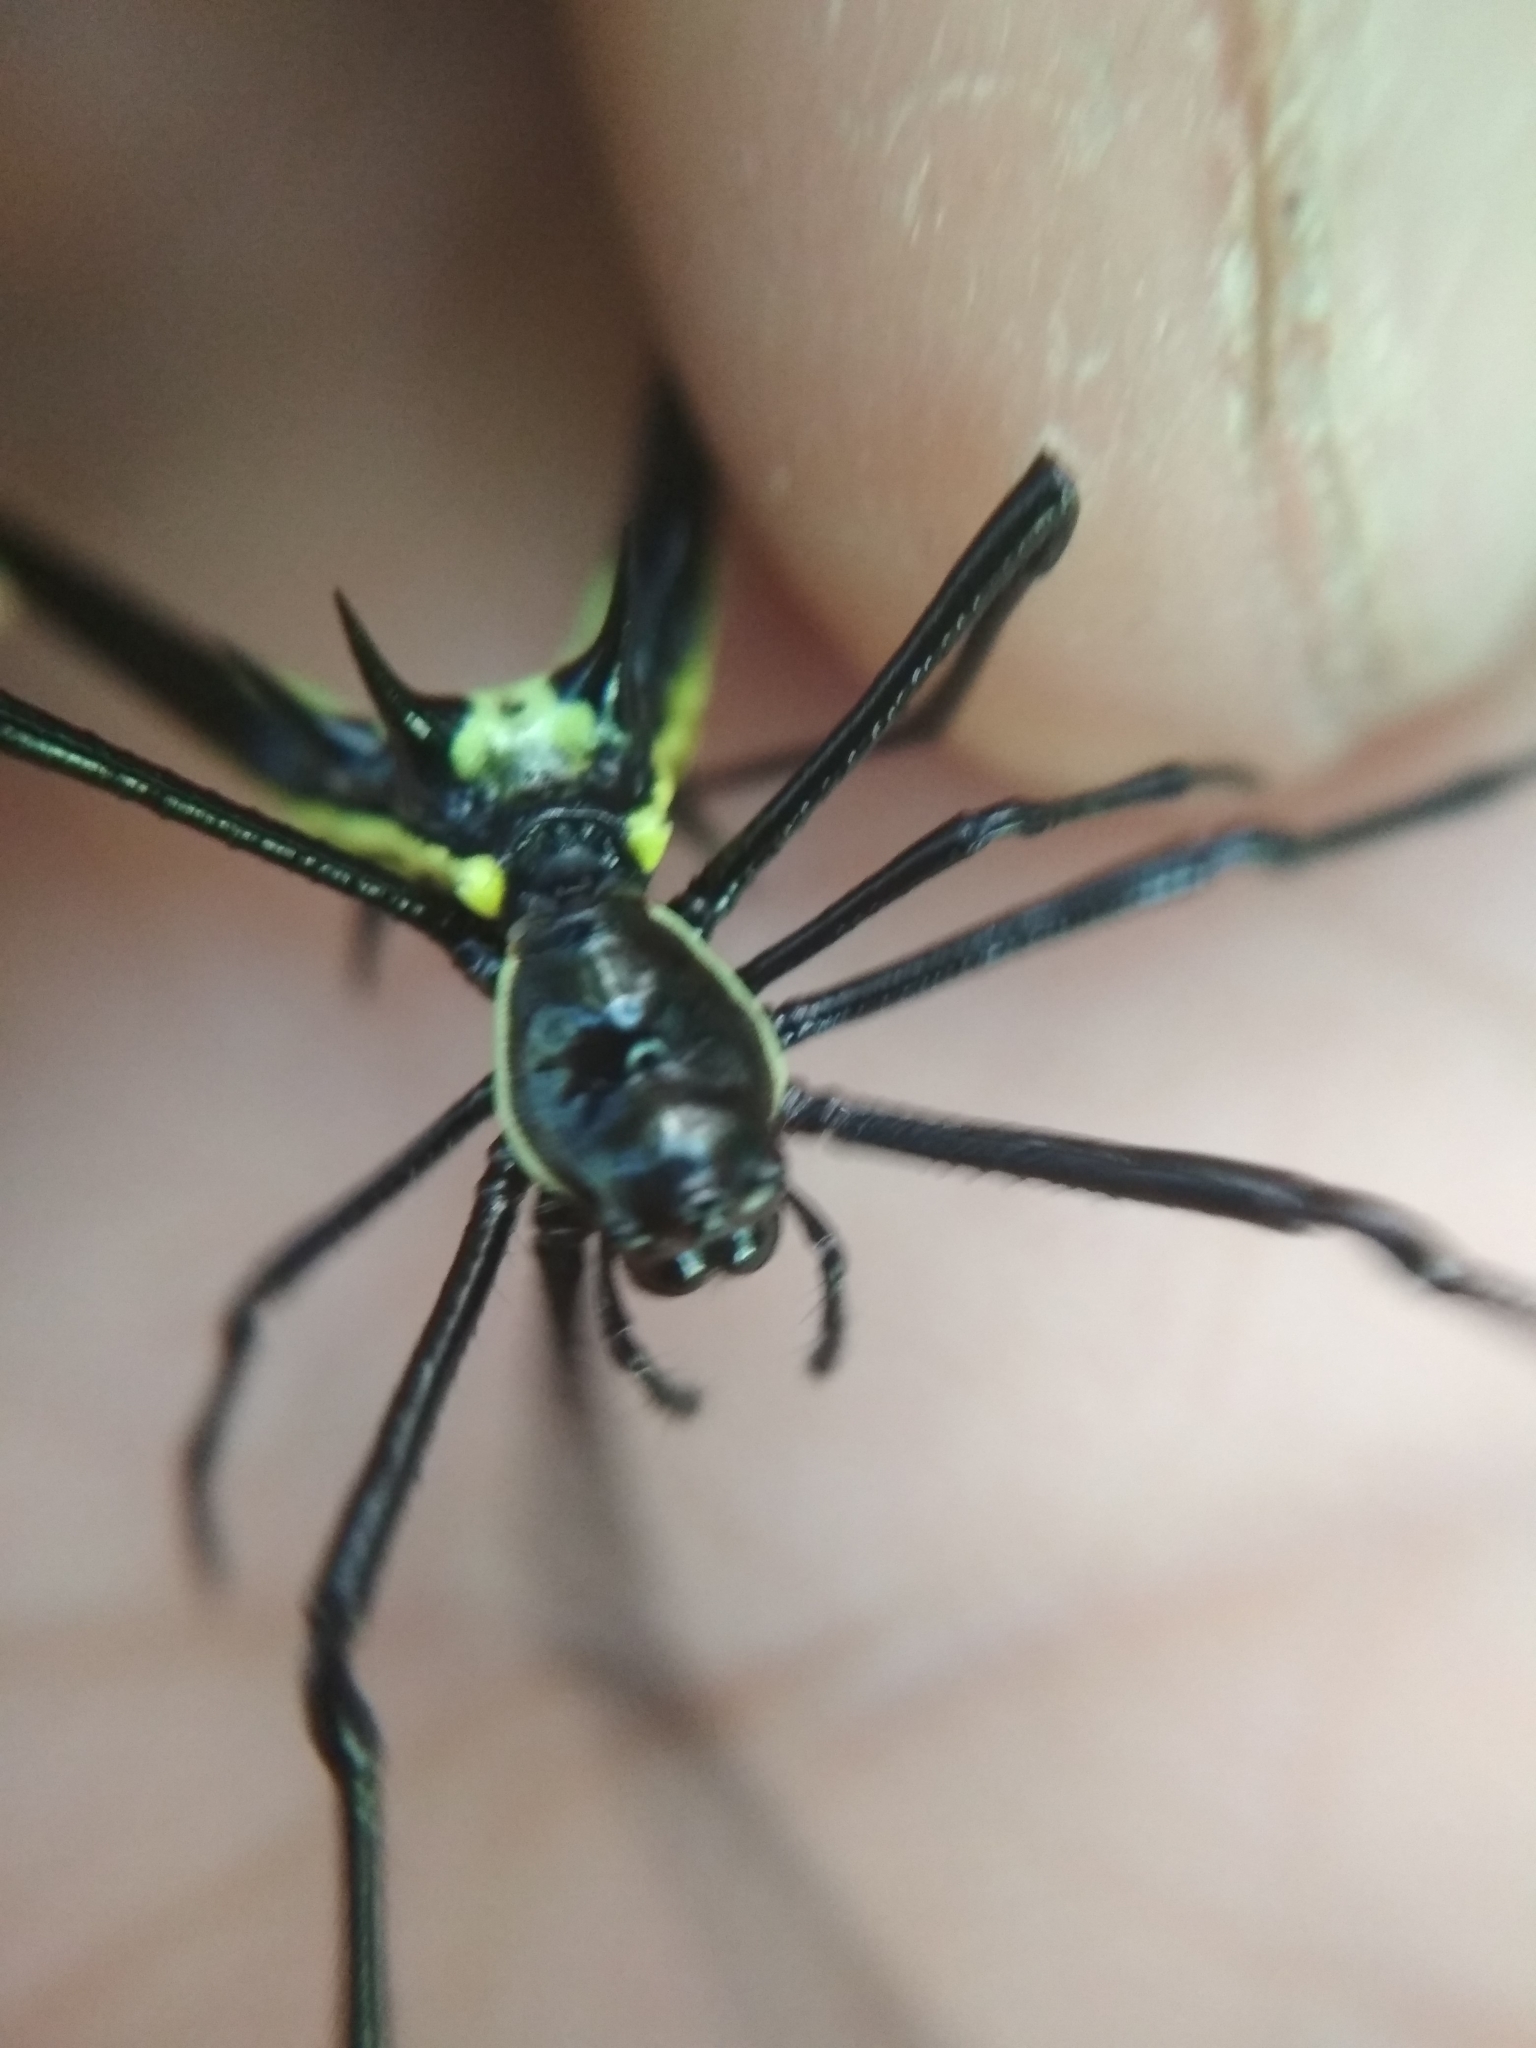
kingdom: Animalia
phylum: Arthropoda
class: Arachnida
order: Araneae
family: Araneidae
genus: Micrathena
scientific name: Micrathena schreibersi
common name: Orb weavers
